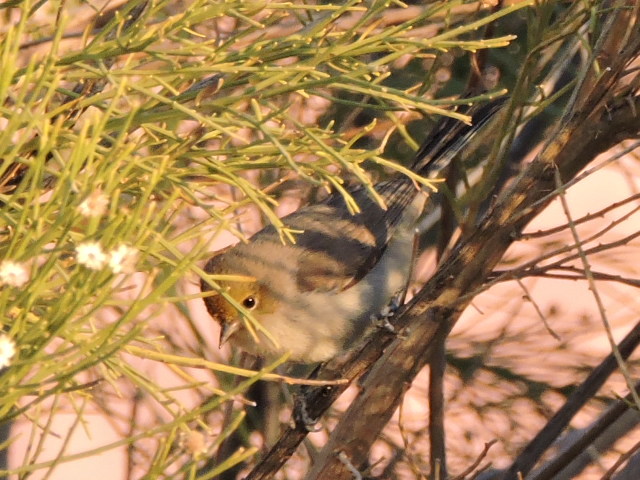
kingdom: Animalia
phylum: Chordata
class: Aves
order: Passeriformes
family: Remizidae
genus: Auriparus
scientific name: Auriparus flaviceps
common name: Verdin
